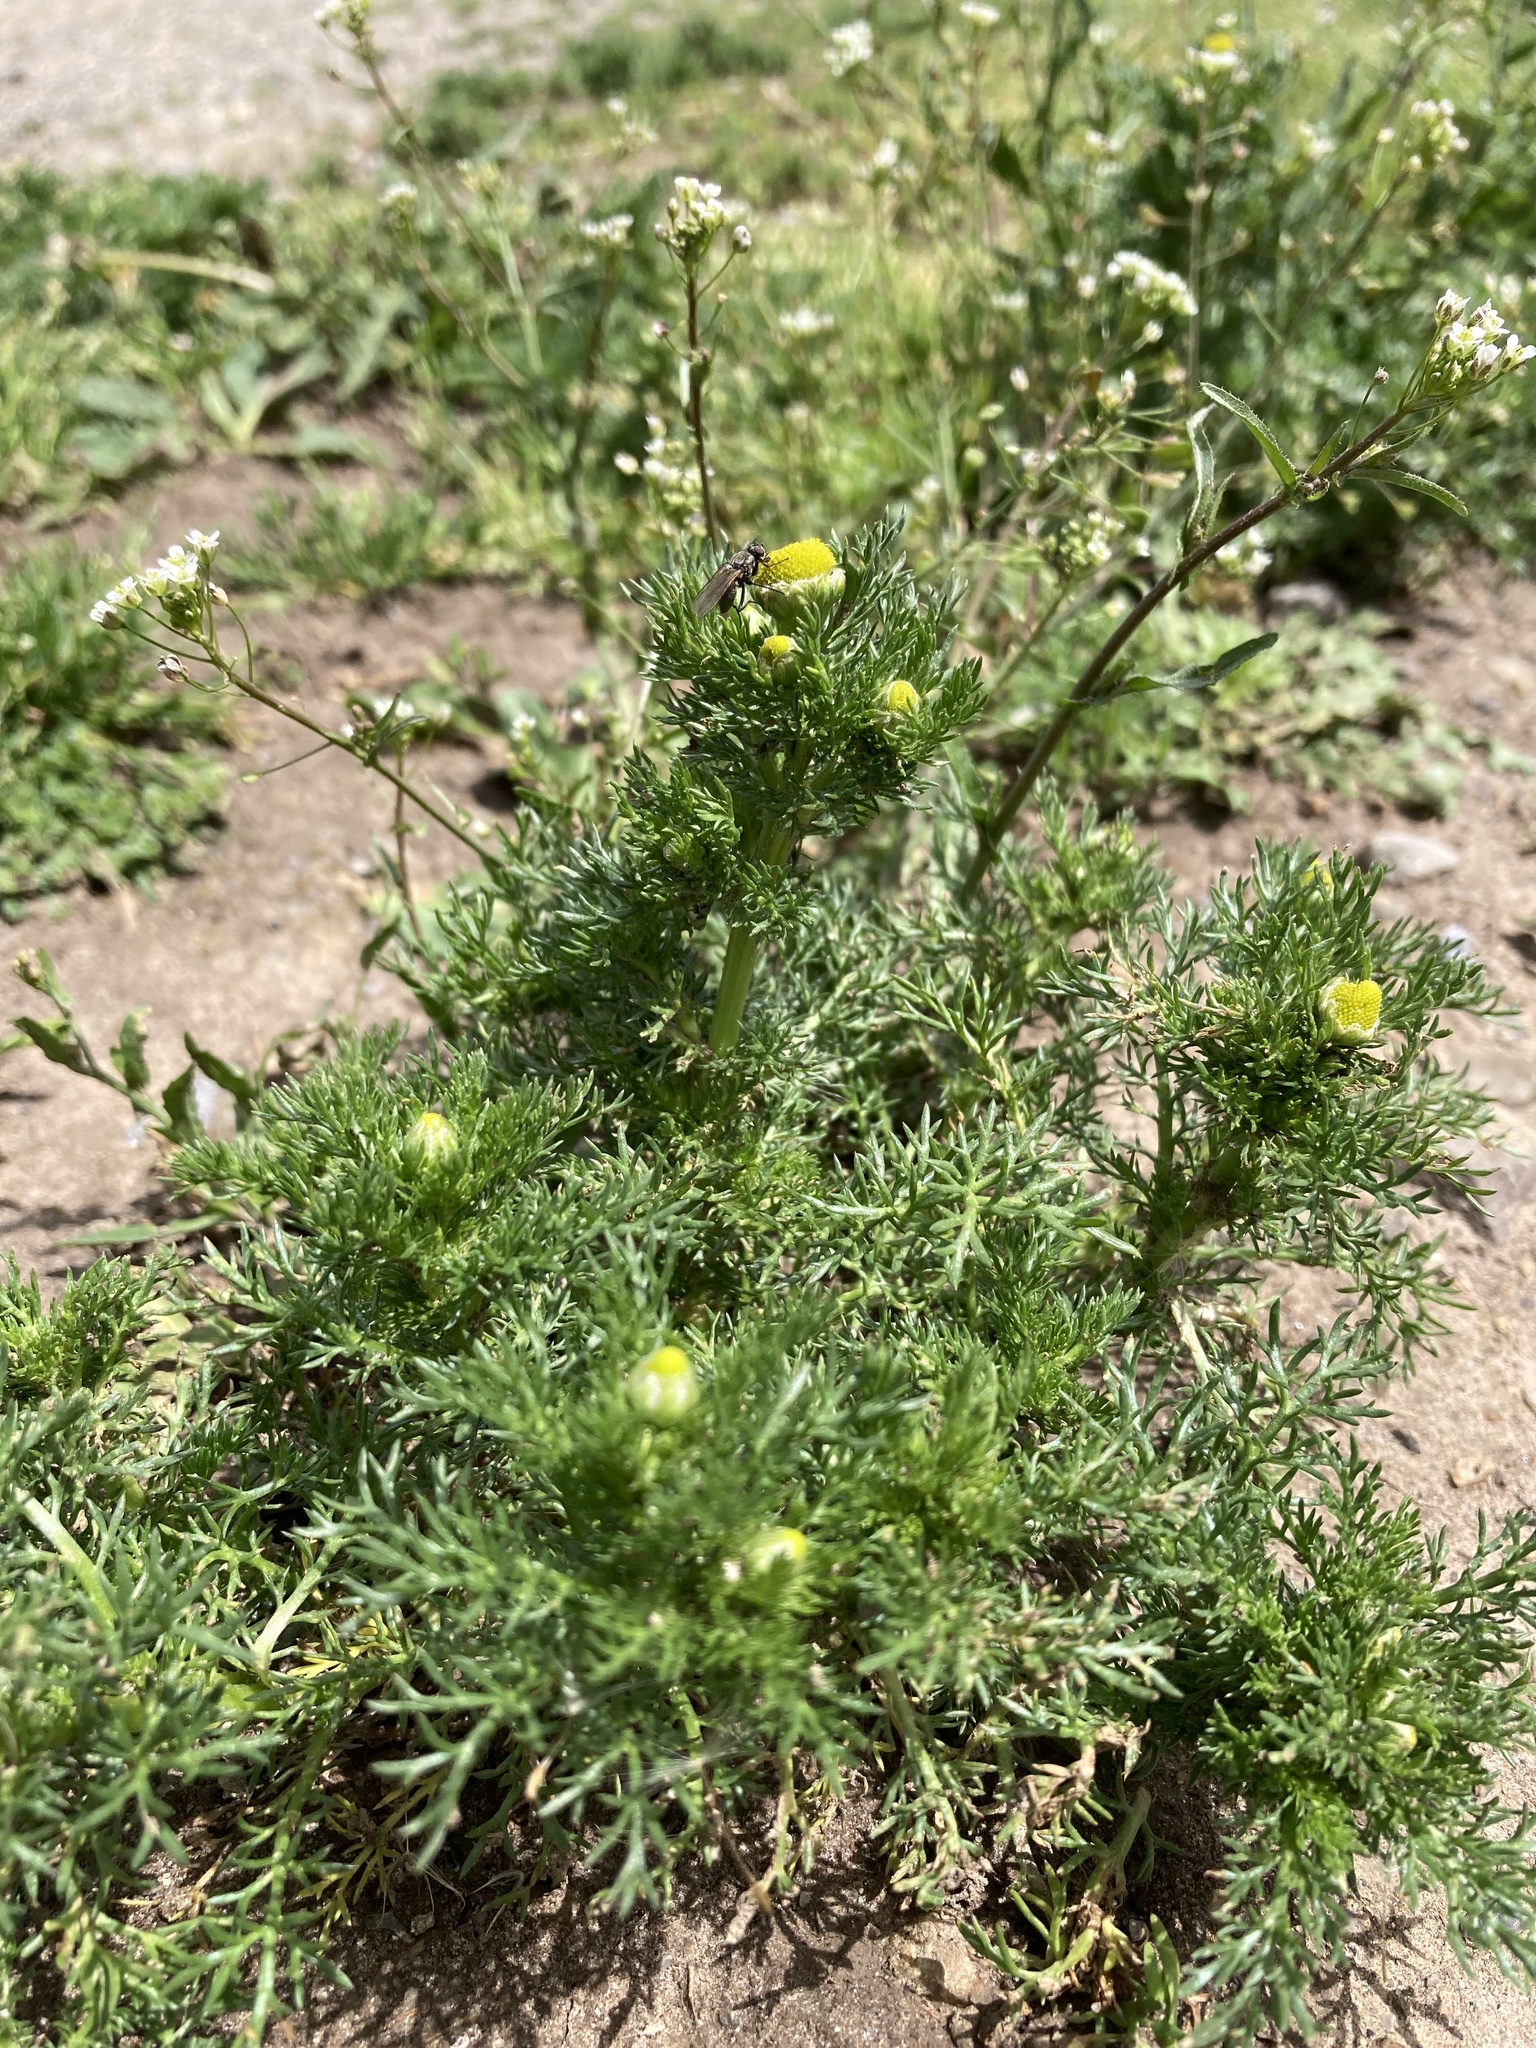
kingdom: Plantae
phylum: Tracheophyta
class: Magnoliopsida
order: Asterales
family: Asteraceae
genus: Matricaria
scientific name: Matricaria discoidea
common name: Disc mayweed
